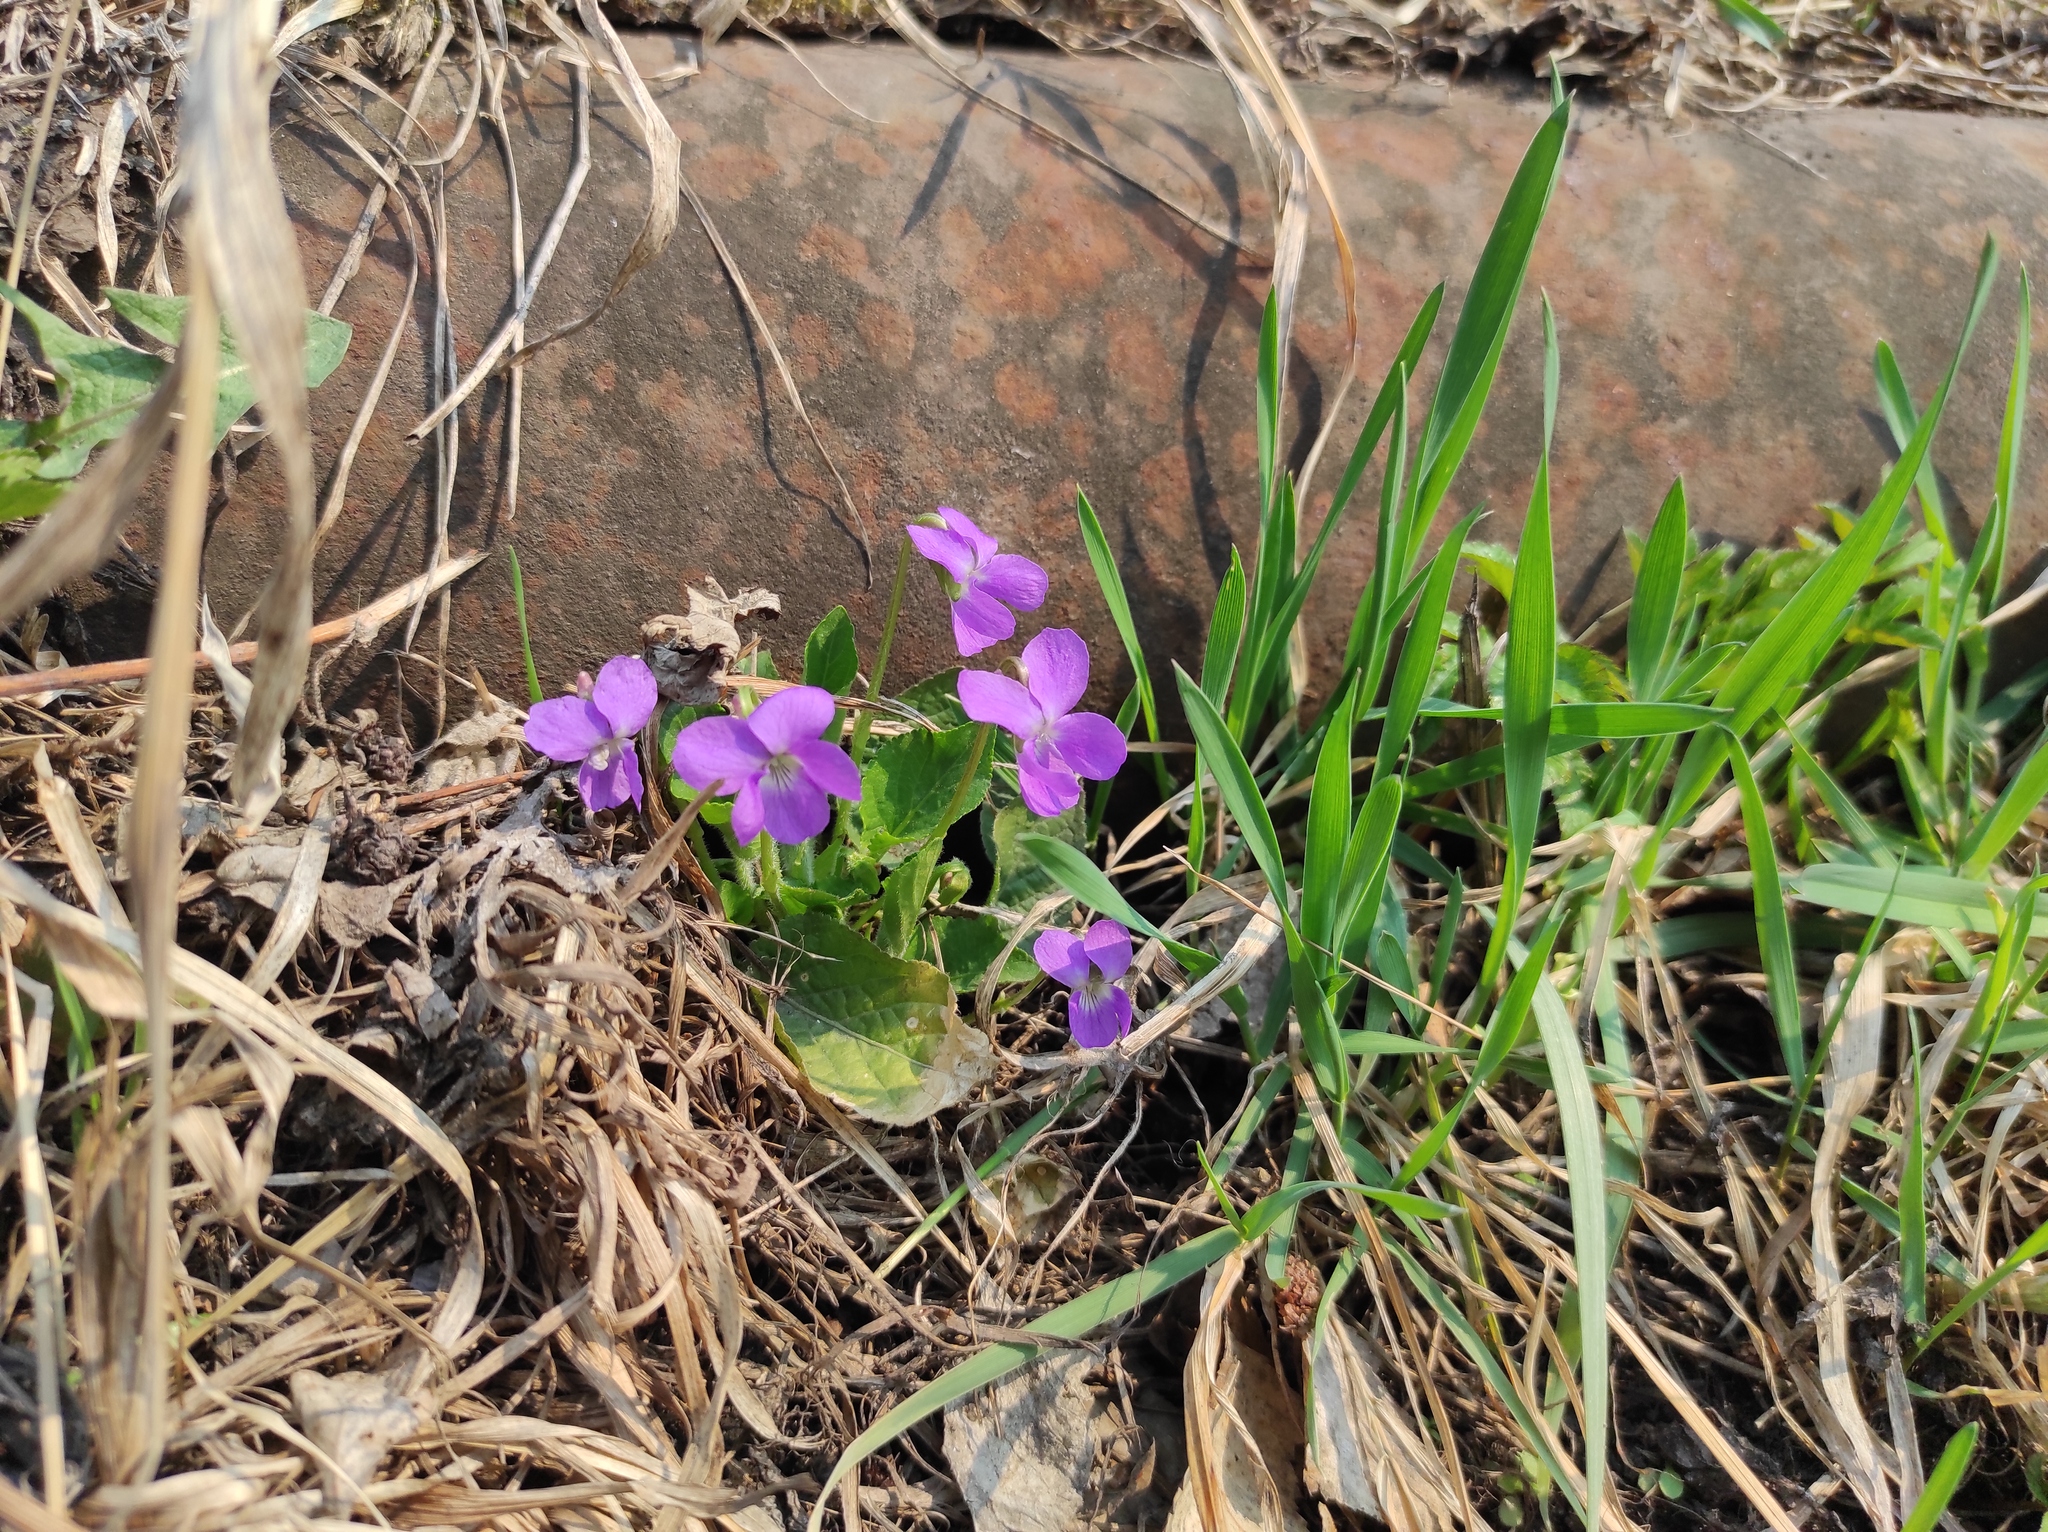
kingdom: Plantae
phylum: Tracheophyta
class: Magnoliopsida
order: Malpighiales
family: Violaceae
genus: Viola
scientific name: Viola hirta
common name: Hairy violet
